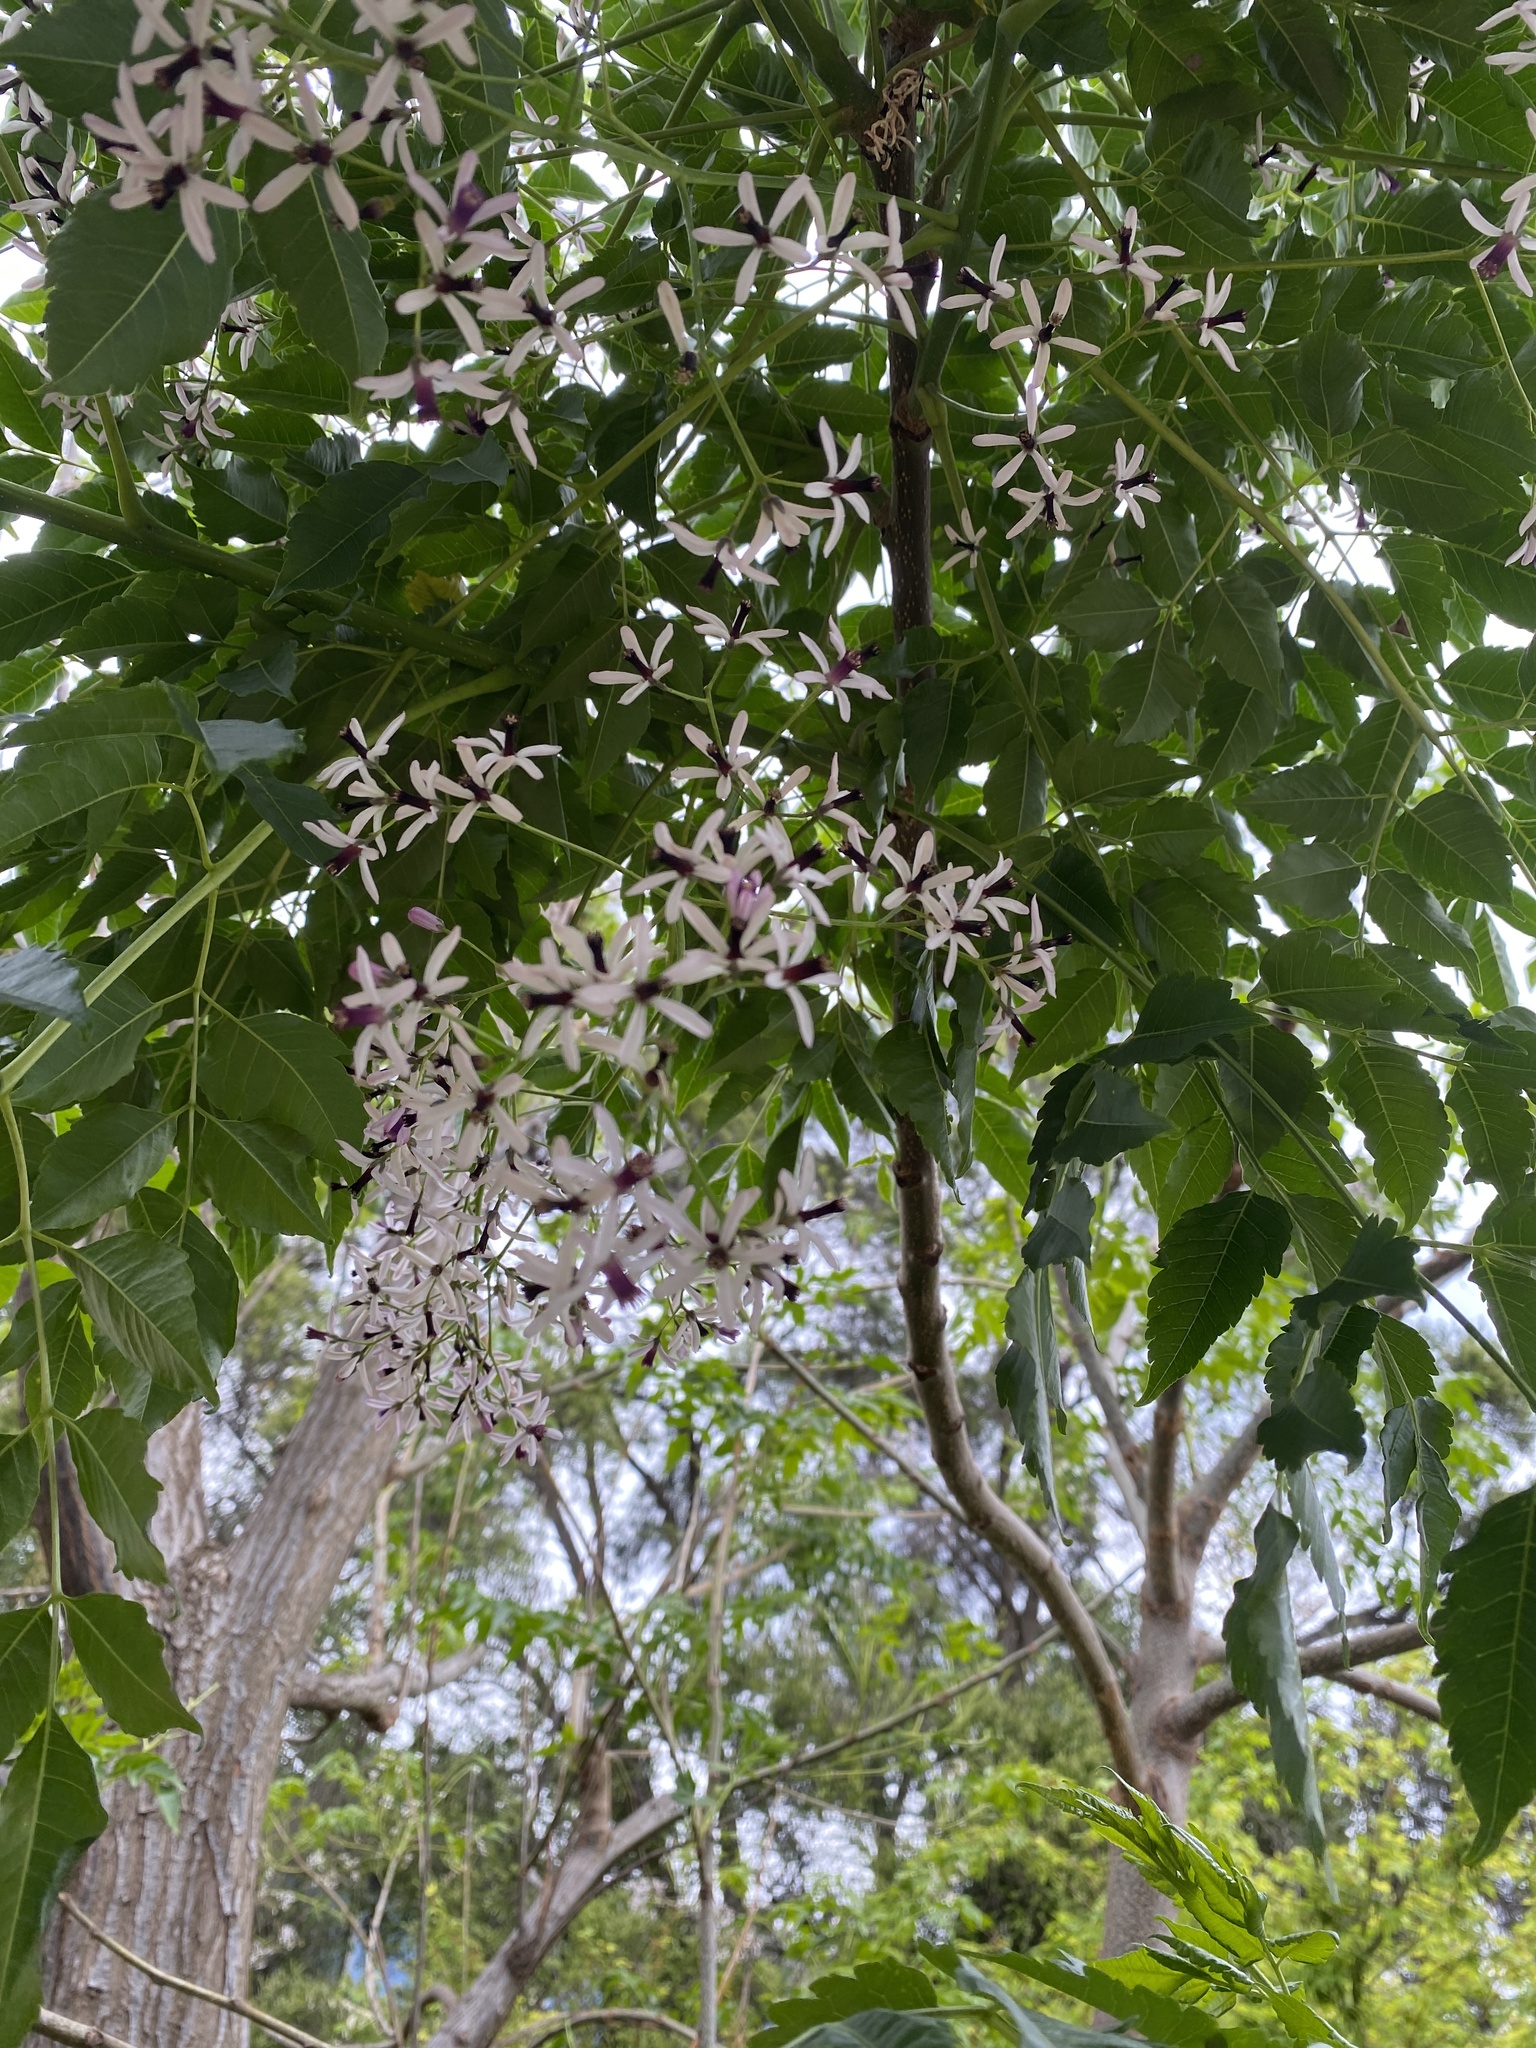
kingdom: Plantae
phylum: Tracheophyta
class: Magnoliopsida
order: Sapindales
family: Meliaceae
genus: Melia
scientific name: Melia azedarach
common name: Chinaberrytree
